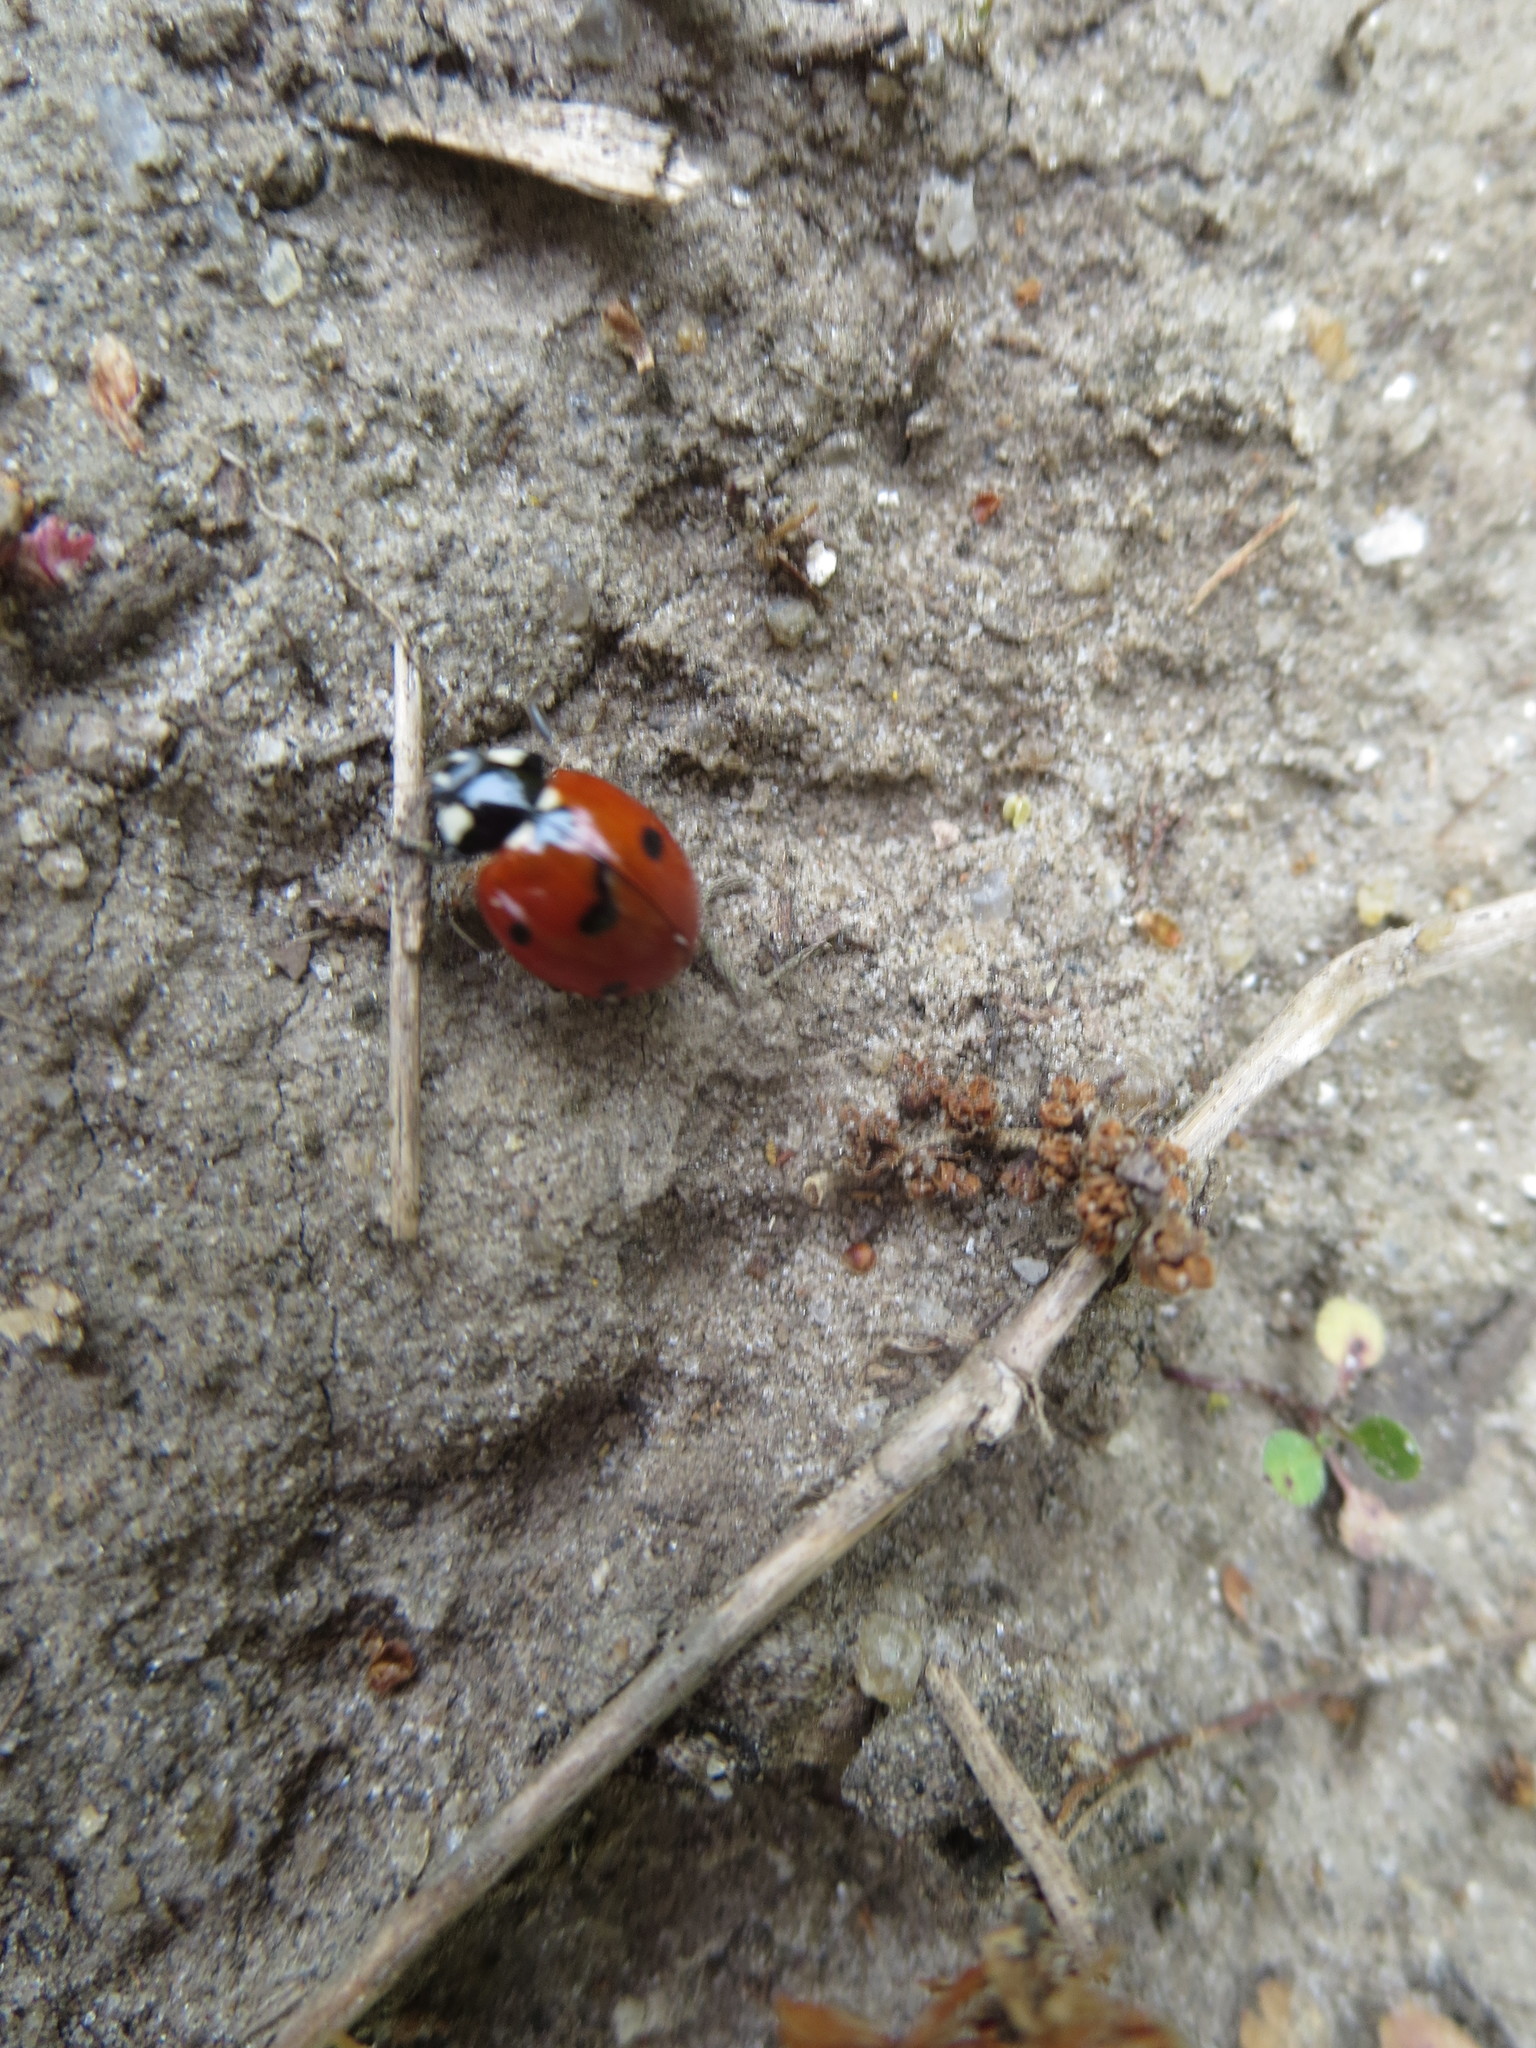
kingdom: Animalia
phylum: Arthropoda
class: Insecta
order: Coleoptera
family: Coccinellidae
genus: Coccinella
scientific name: Coccinella septempunctata
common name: Sevenspotted lady beetle
